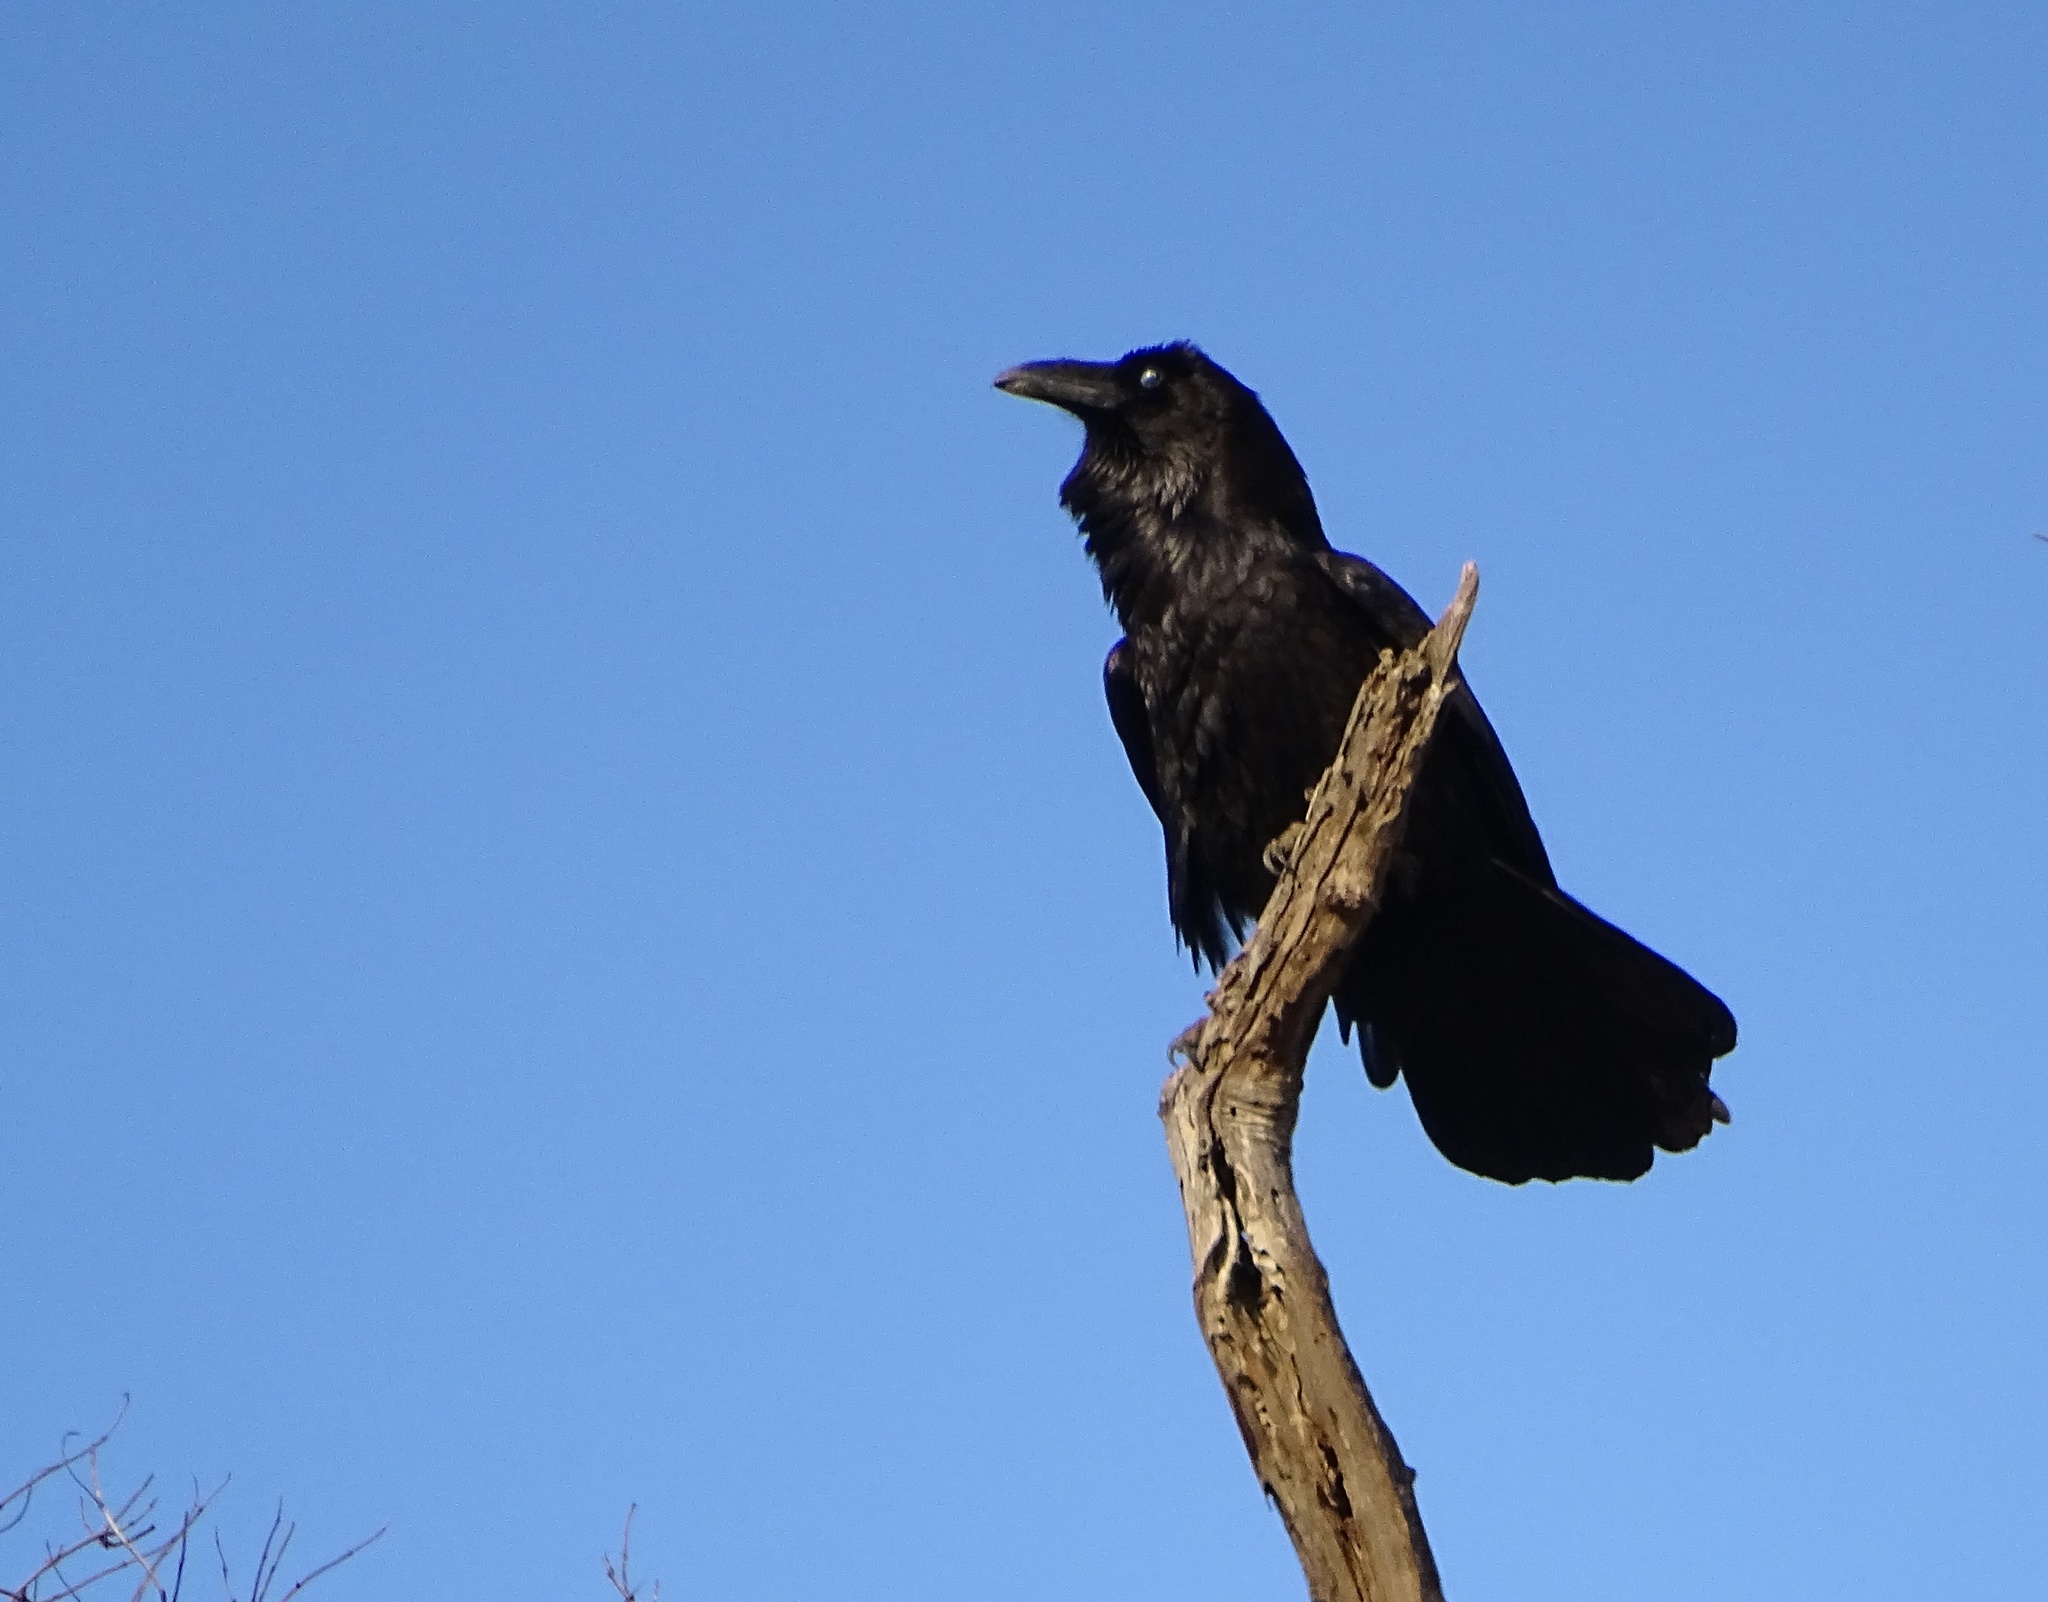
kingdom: Animalia
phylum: Chordata
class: Aves
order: Passeriformes
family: Corvidae
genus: Corvus
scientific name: Corvus corax
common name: Common raven
